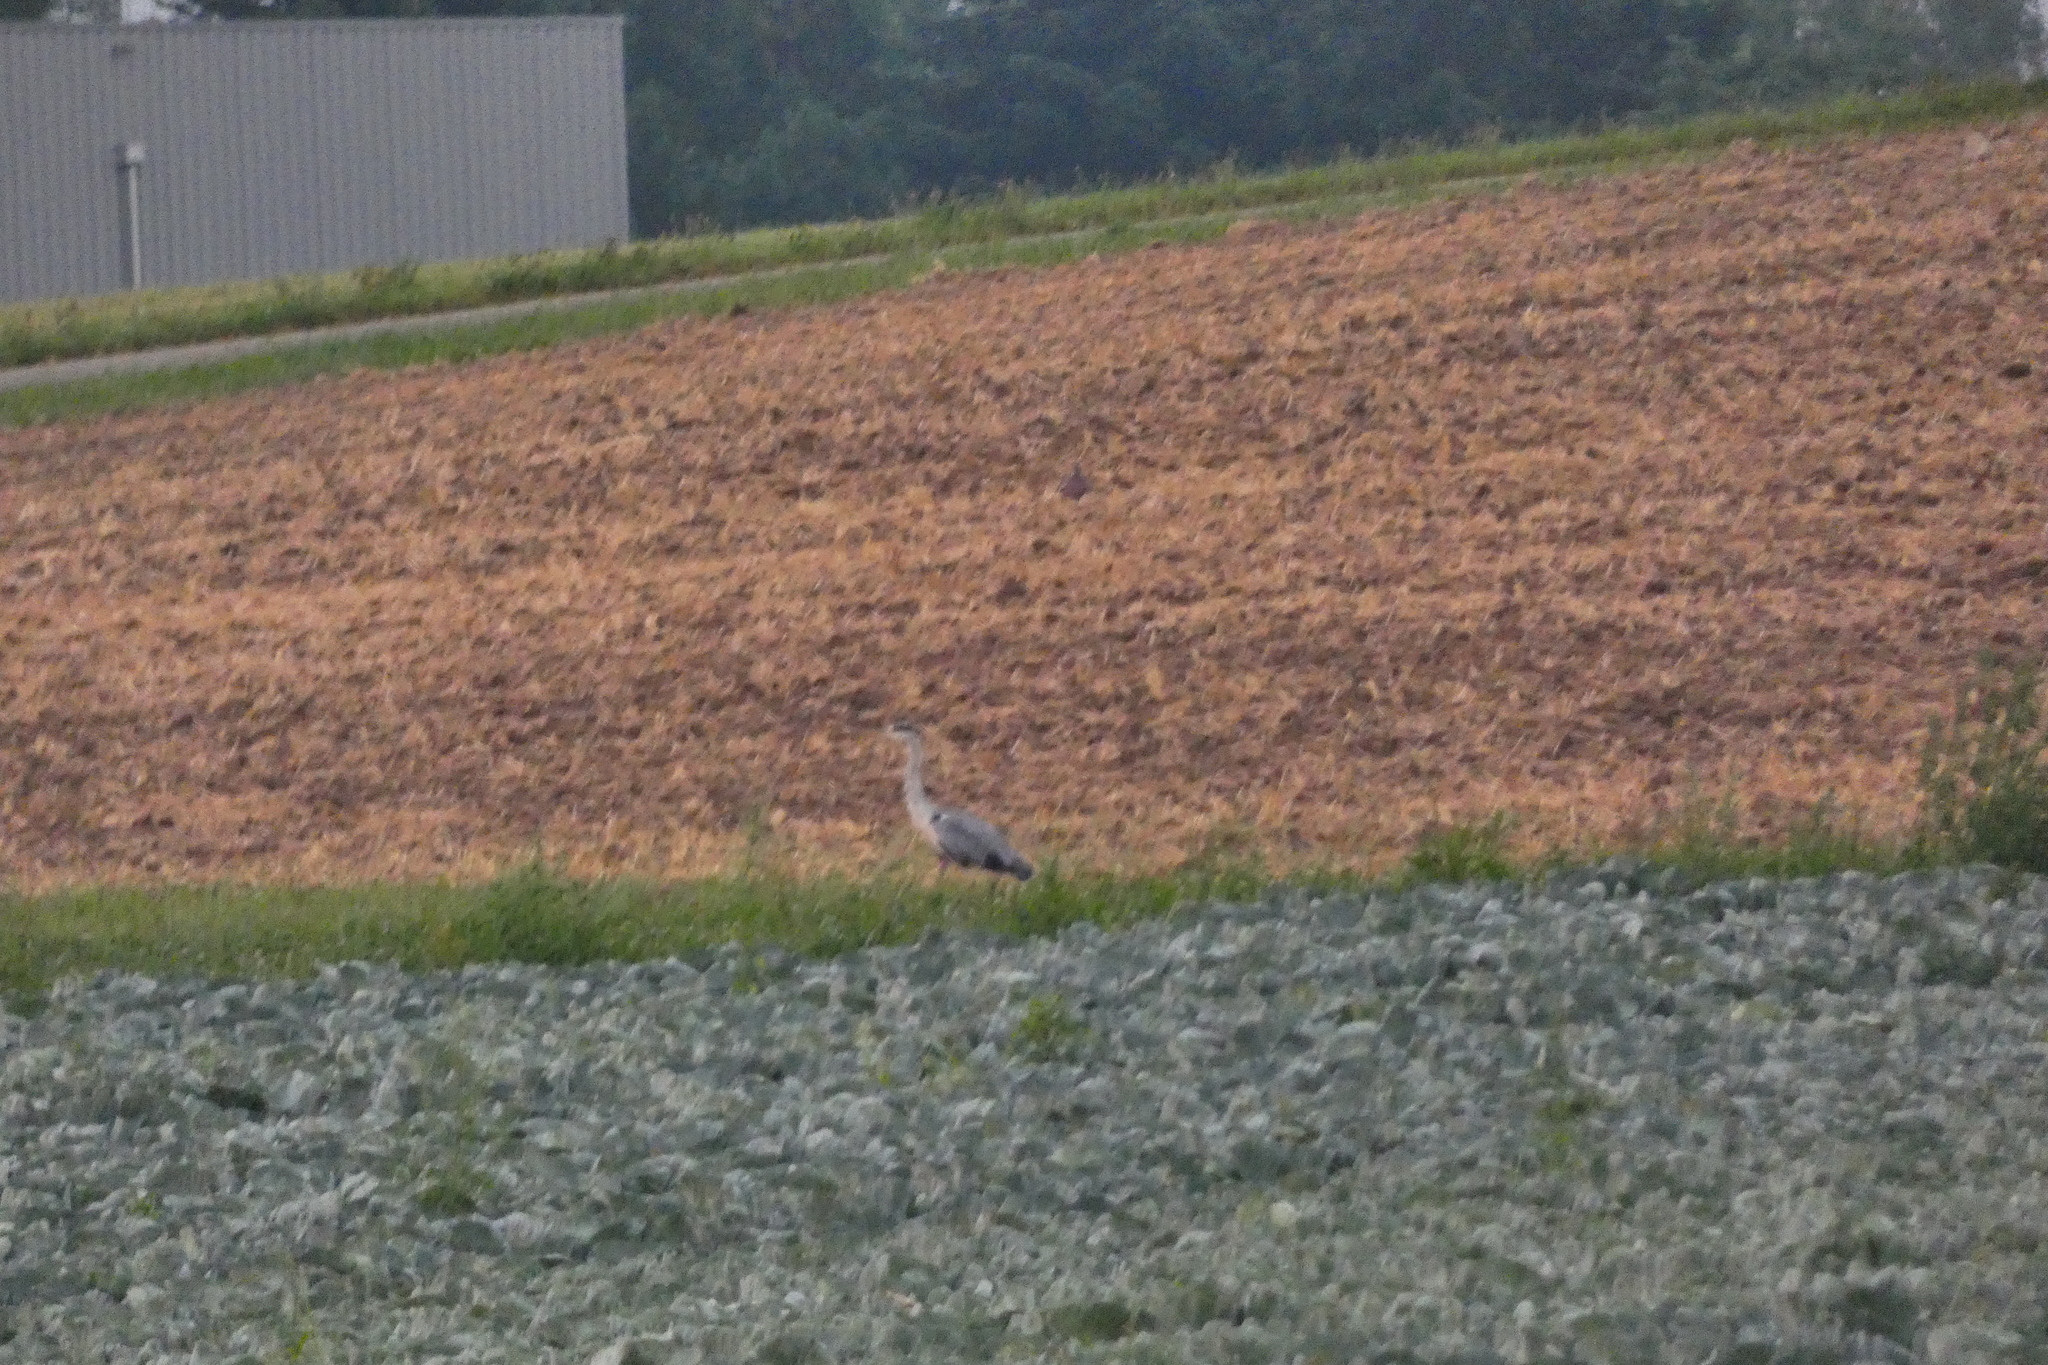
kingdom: Animalia
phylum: Chordata
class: Aves
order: Pelecaniformes
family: Ardeidae
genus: Ardea
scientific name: Ardea cinerea
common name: Grey heron
